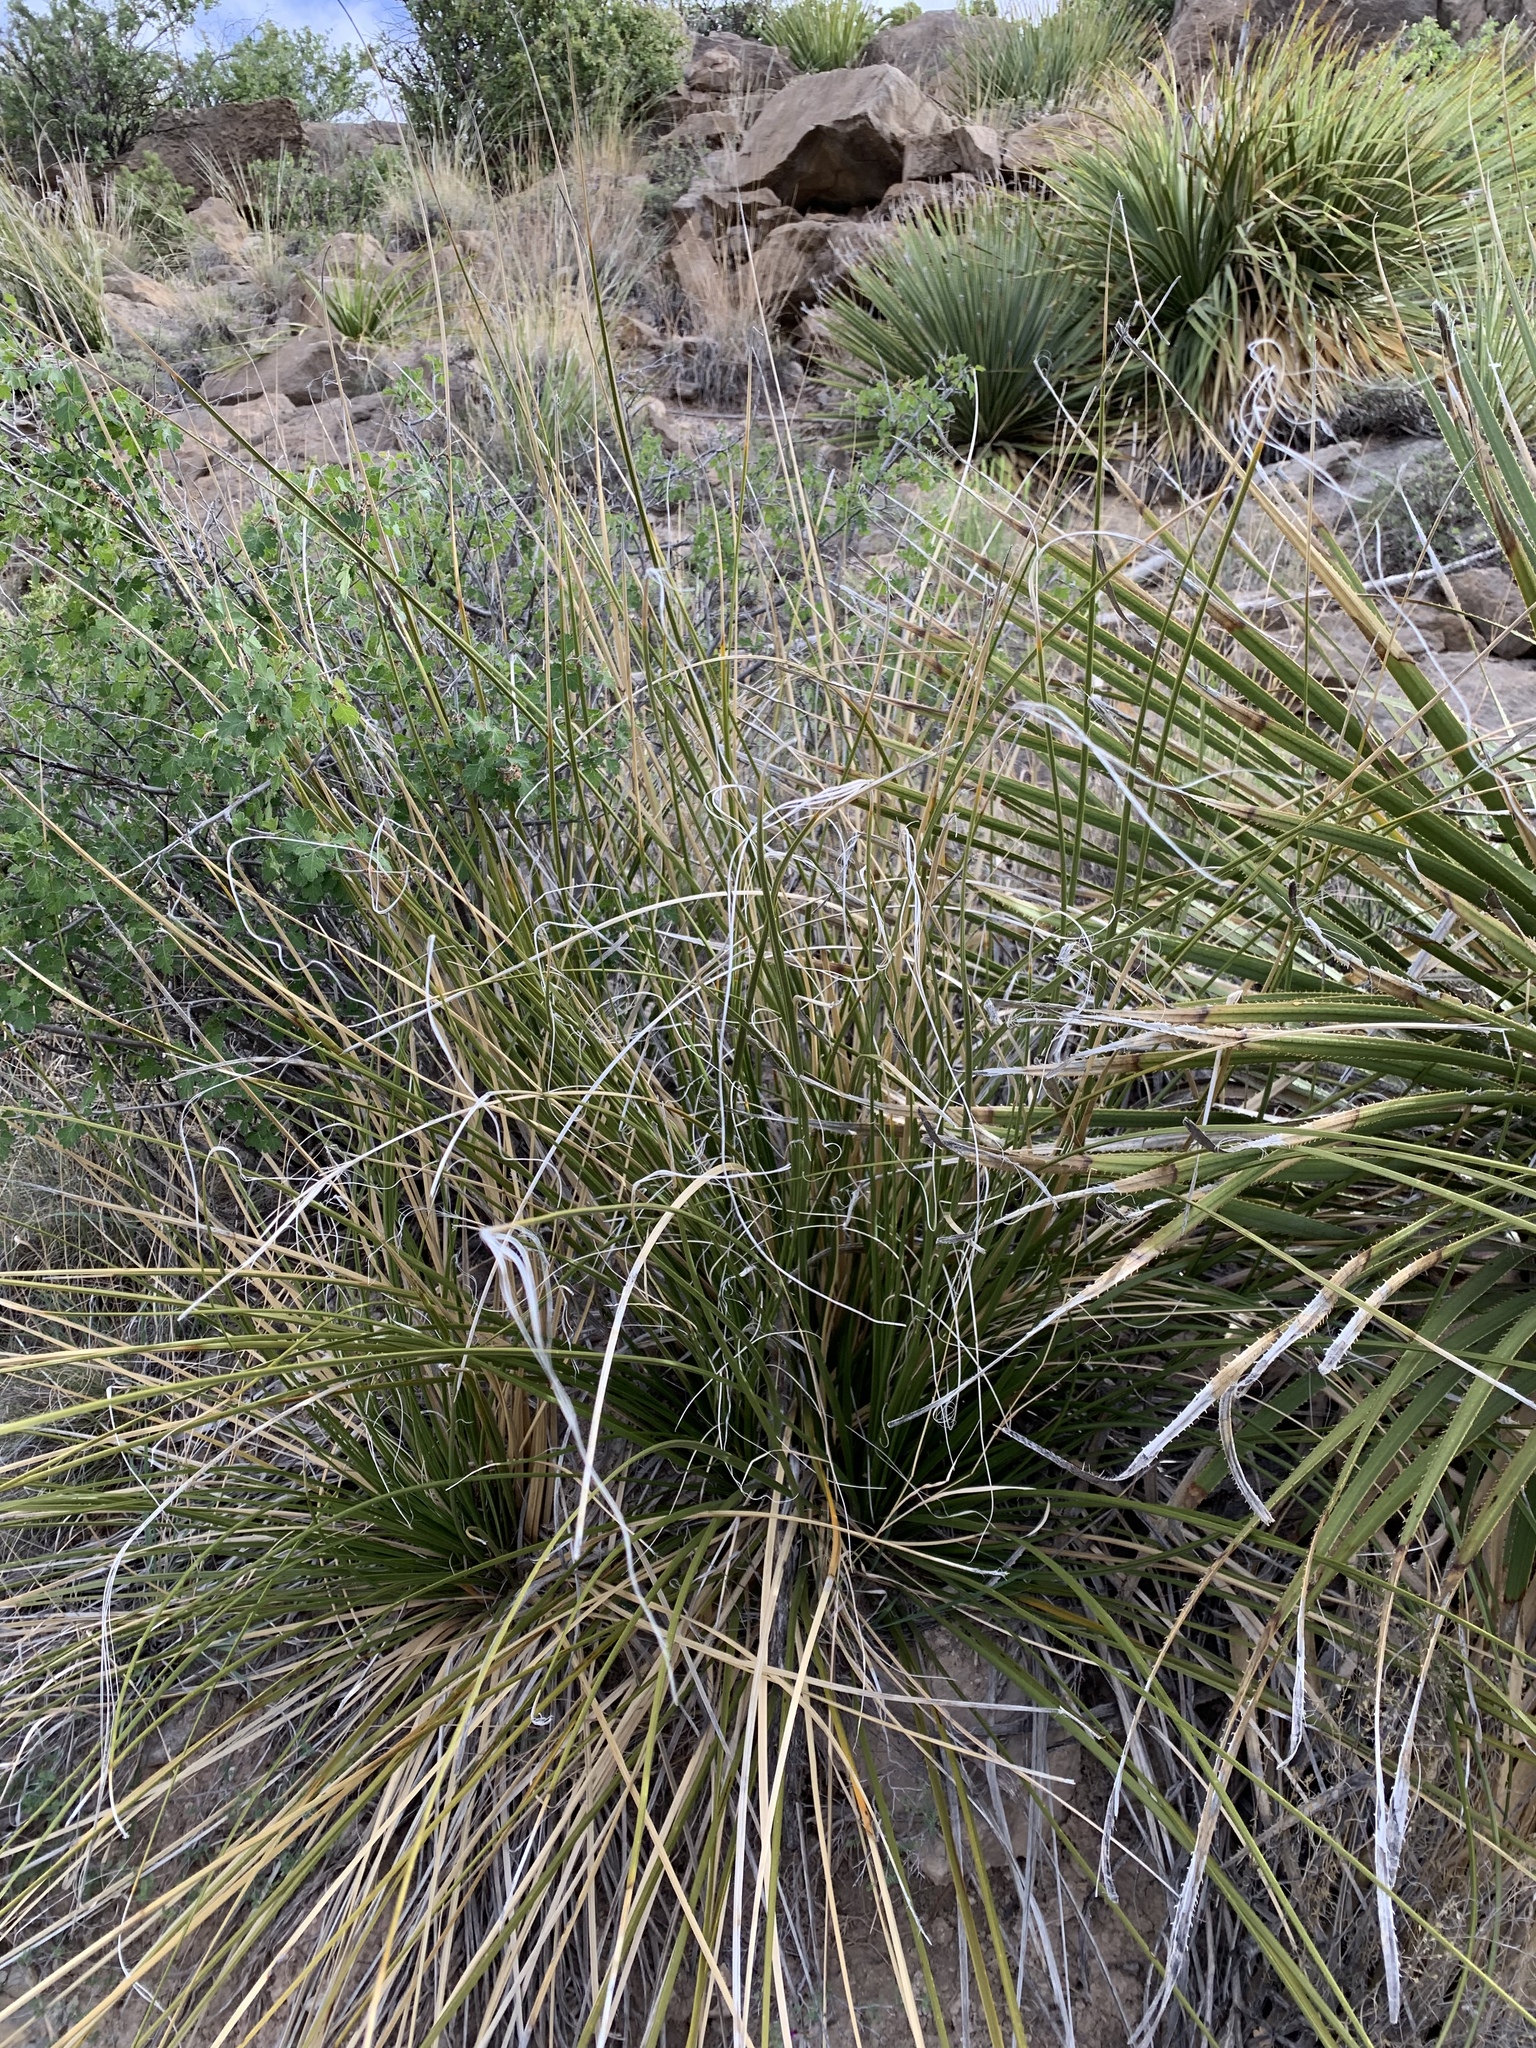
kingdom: Plantae
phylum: Tracheophyta
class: Liliopsida
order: Asparagales
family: Asparagaceae
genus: Nolina
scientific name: Nolina microcarpa
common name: Bear-grass
